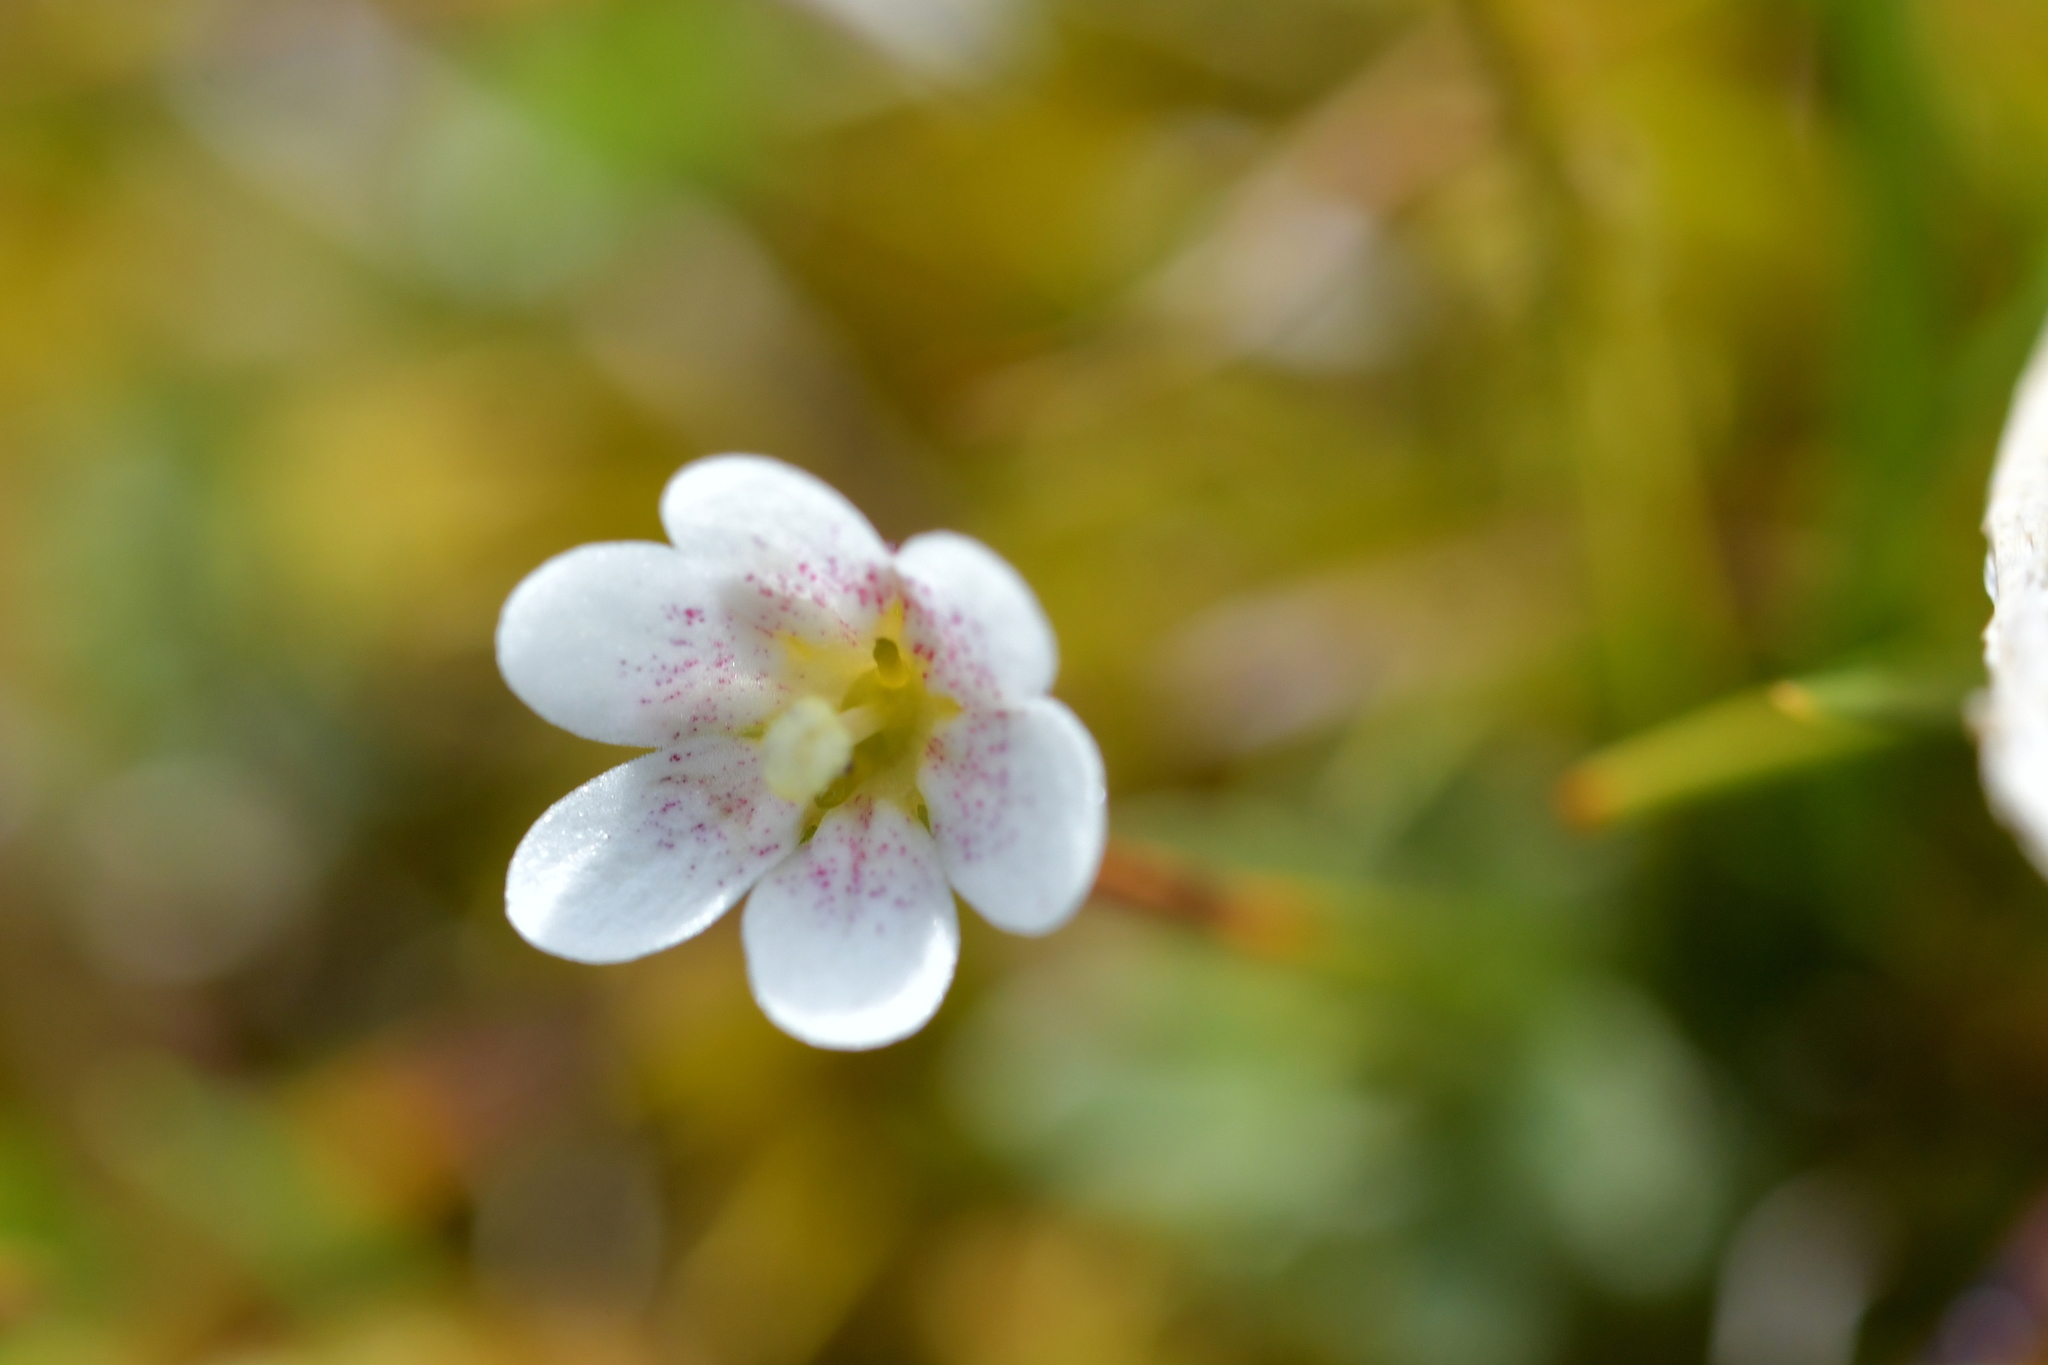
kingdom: Plantae
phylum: Tracheophyta
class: Magnoliopsida
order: Asterales
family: Stylidiaceae
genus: Forstera
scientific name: Forstera tenella
